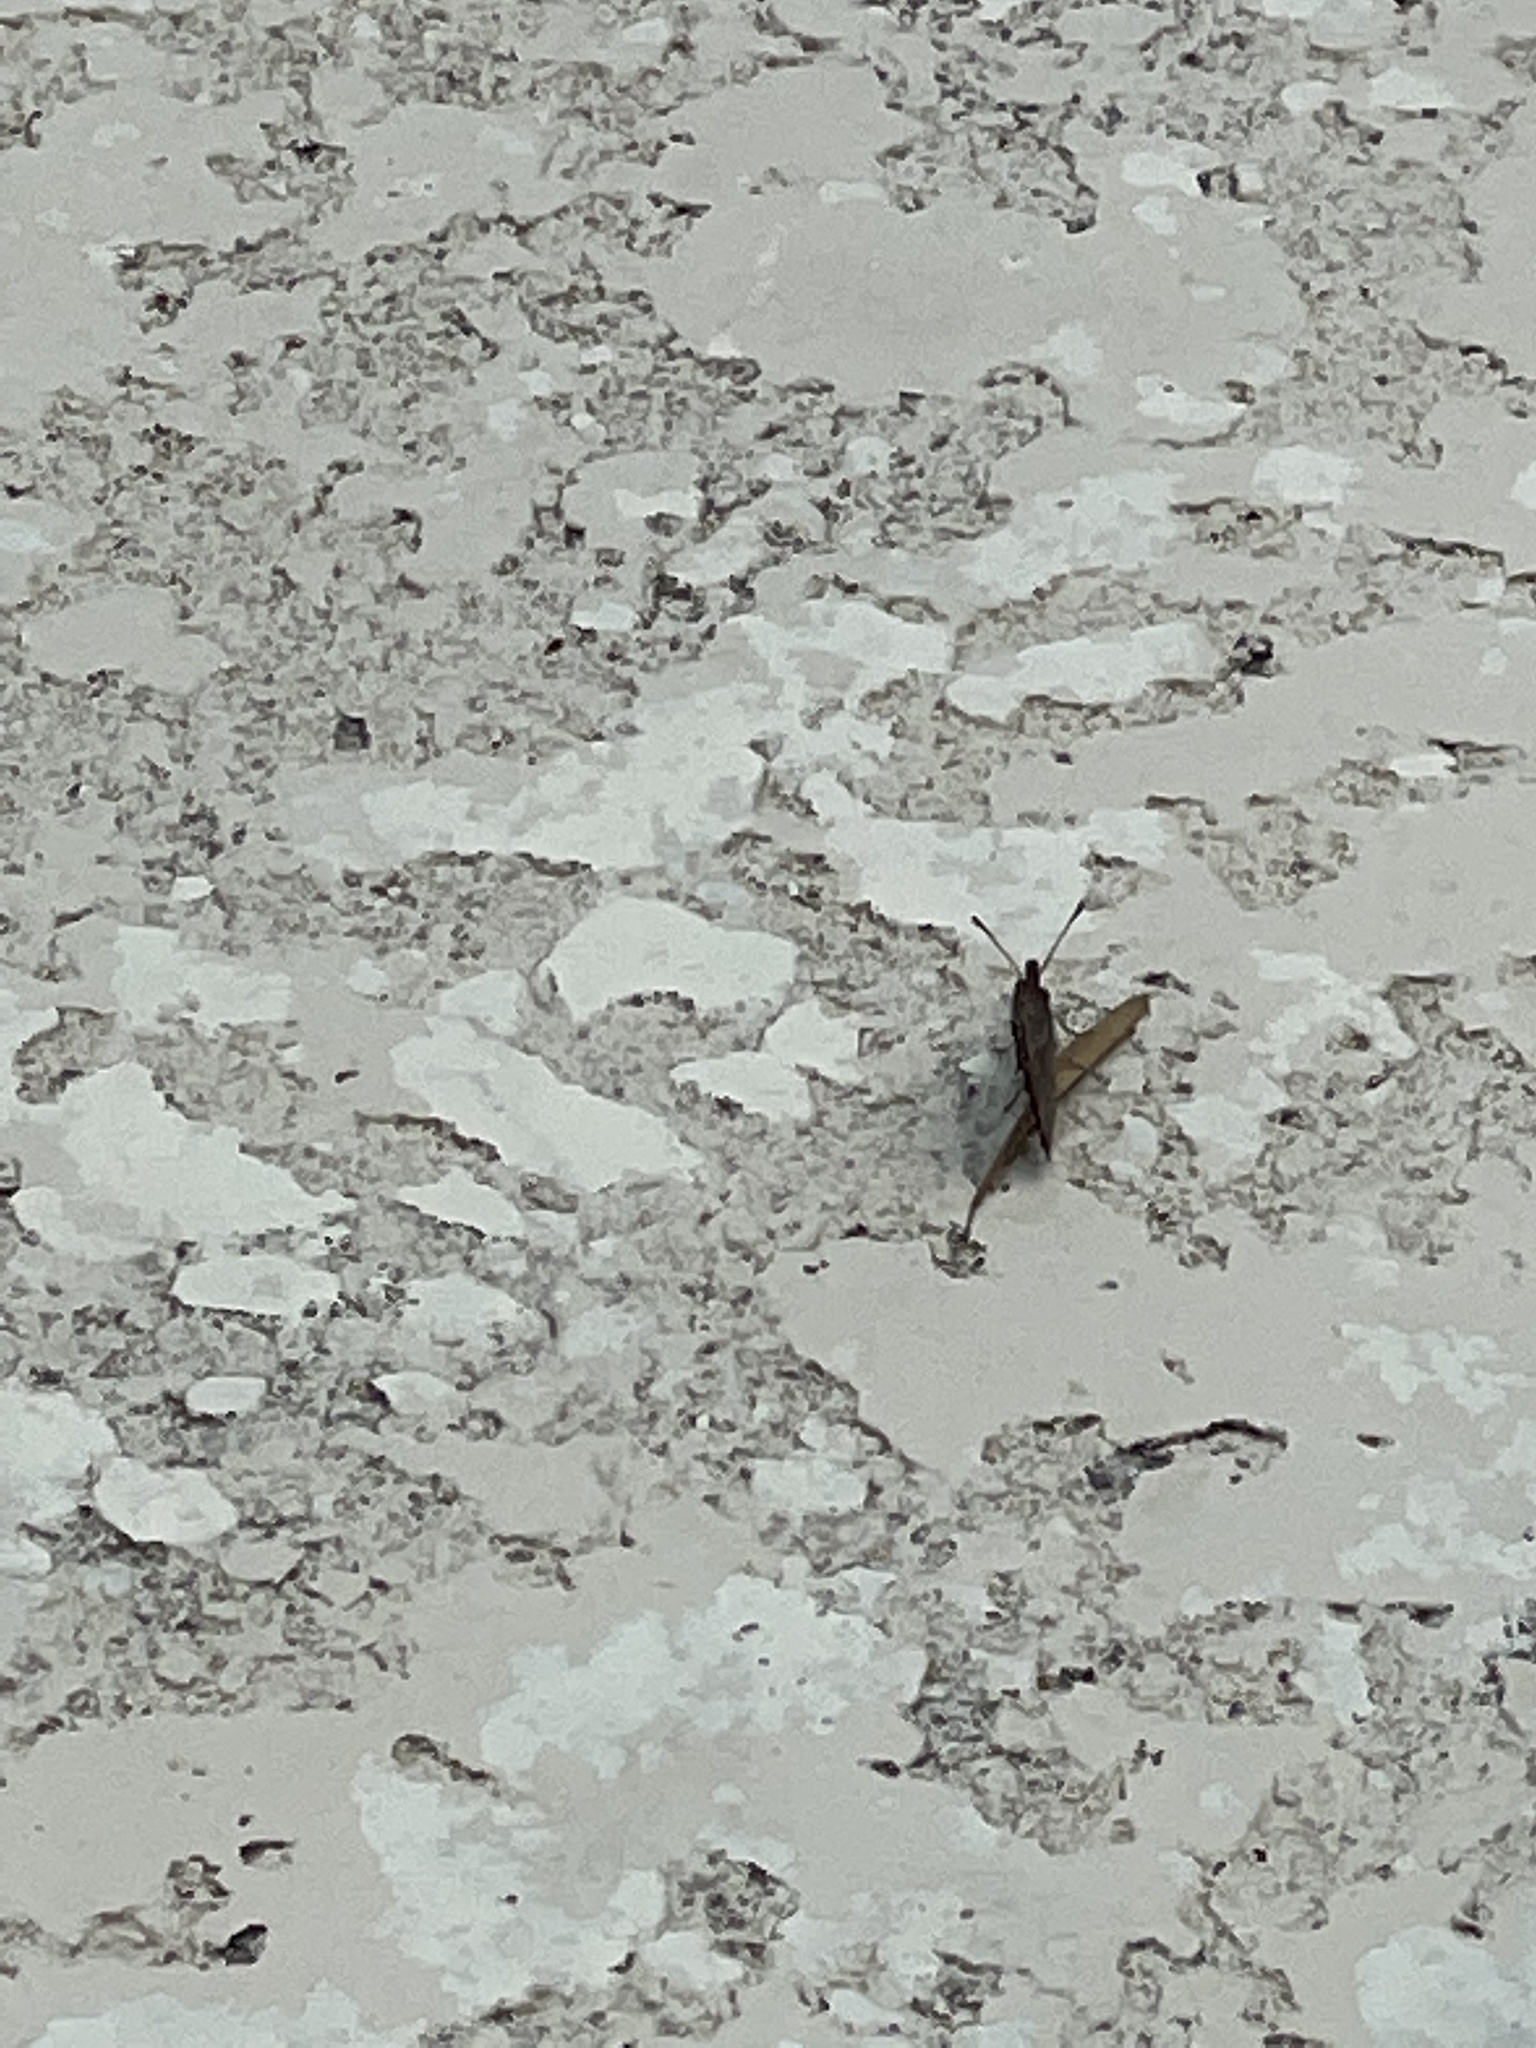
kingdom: Animalia
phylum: Arthropoda
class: Insecta
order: Lepidoptera
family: Nymphalidae
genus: Libytheana
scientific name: Libytheana carinenta
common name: American snout
